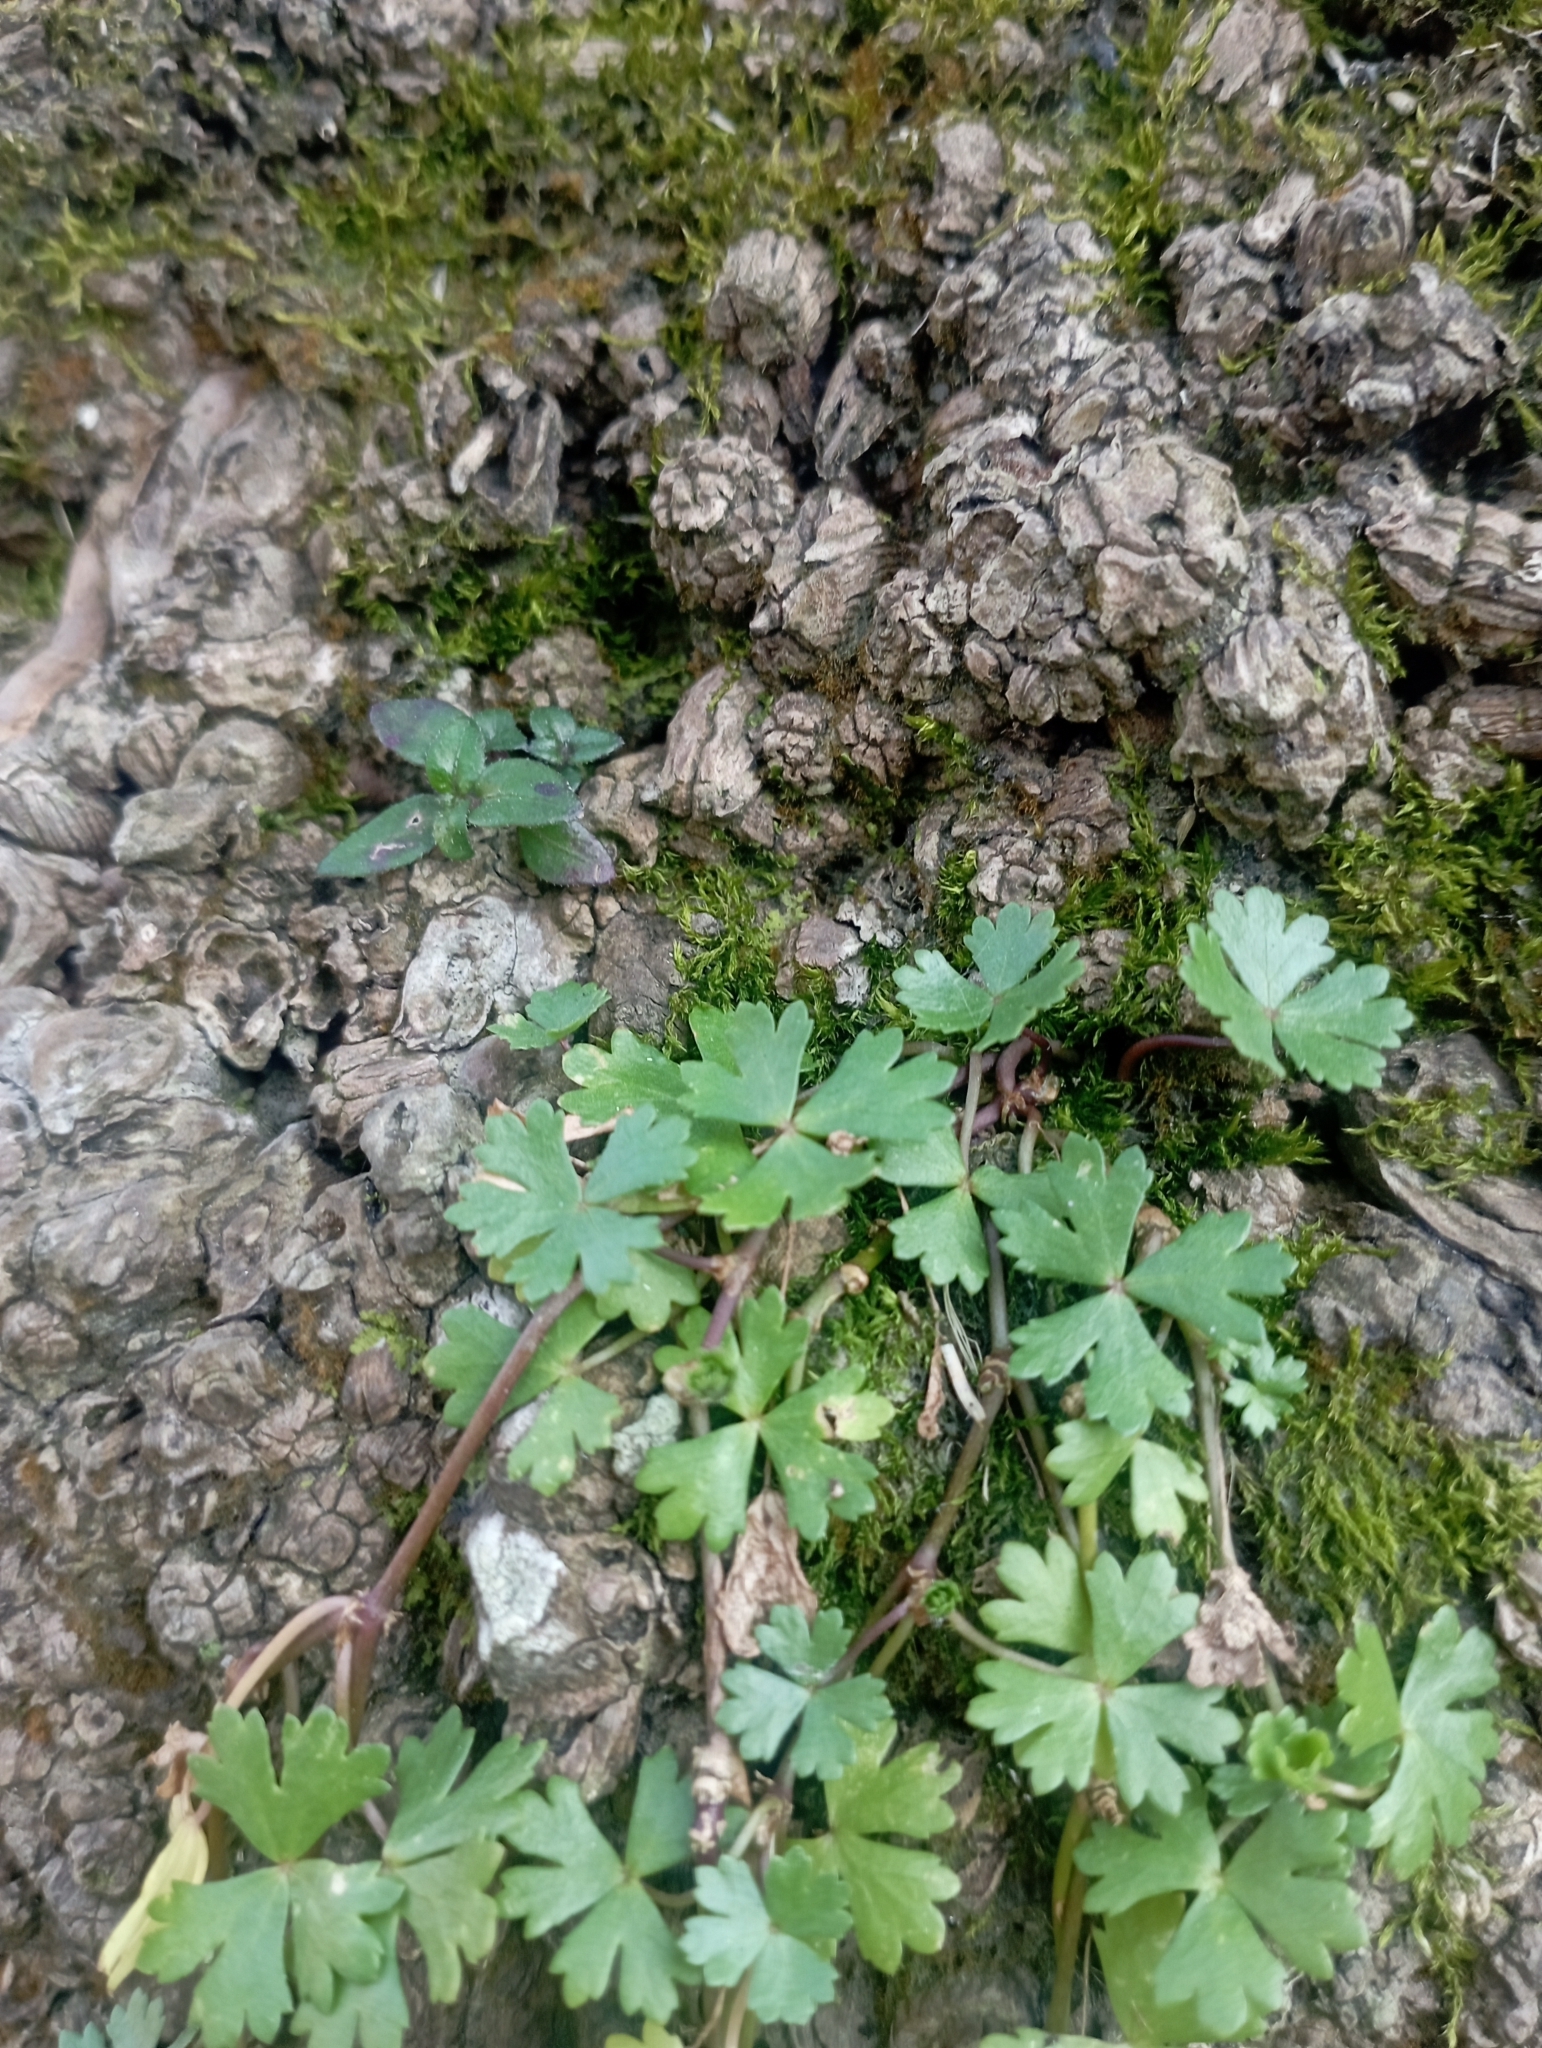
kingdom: Plantae
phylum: Tracheophyta
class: Magnoliopsida
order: Apiales
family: Araliaceae
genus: Hydrocotyle
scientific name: Hydrocotyle batrachium
